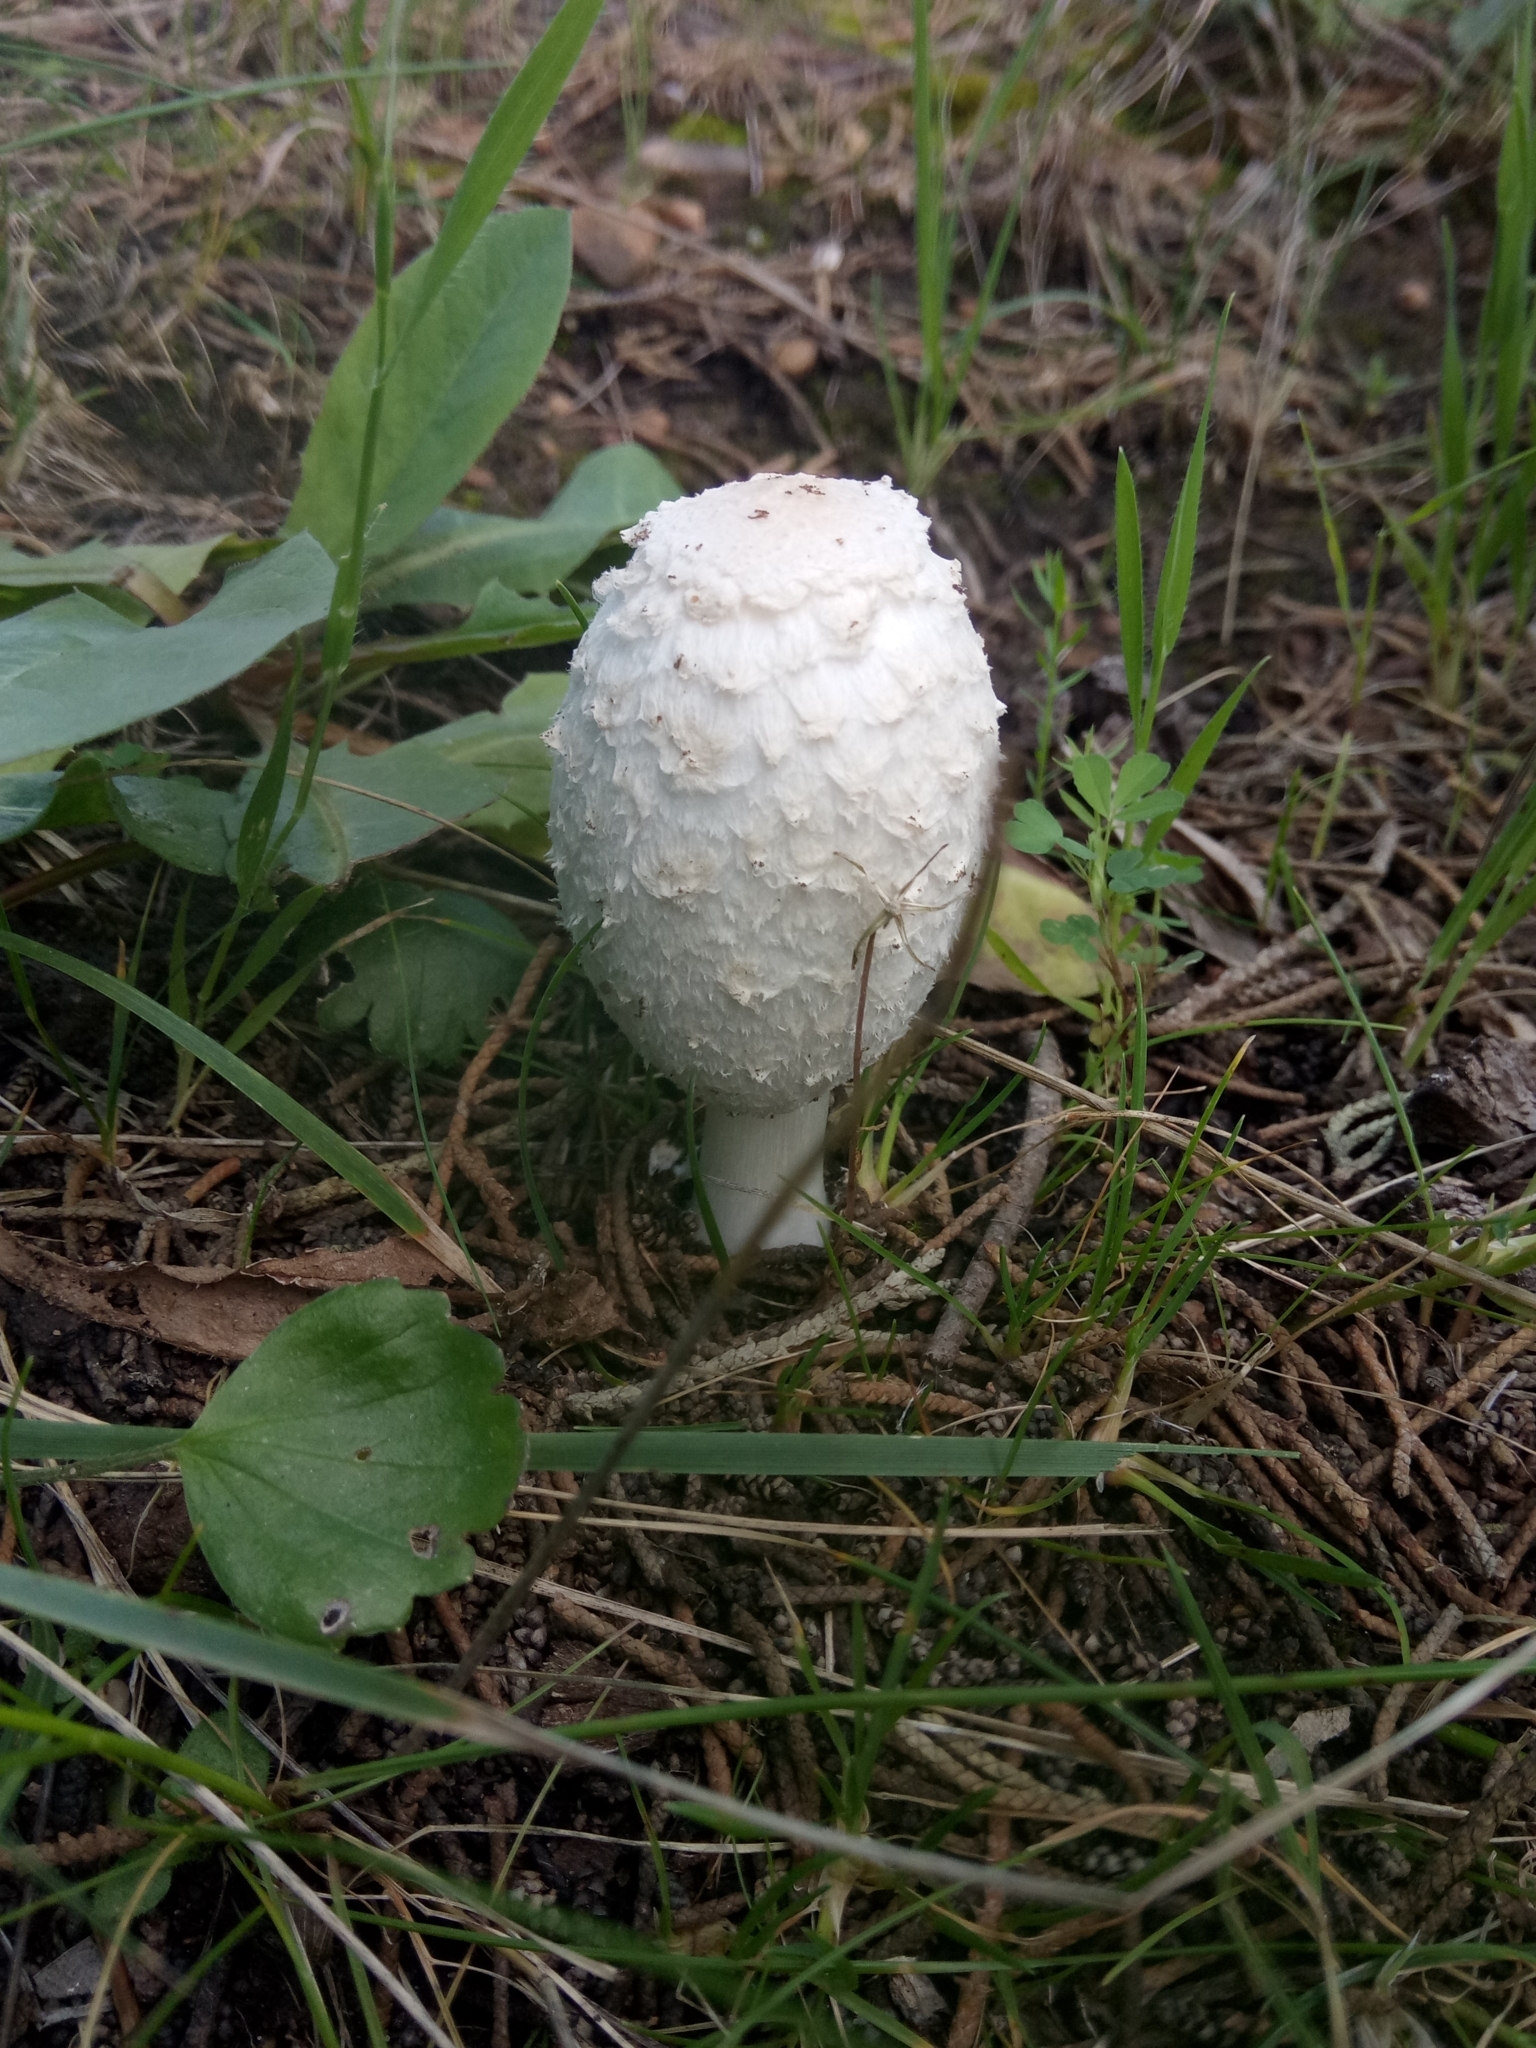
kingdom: Fungi
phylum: Basidiomycota
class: Agaricomycetes
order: Agaricales
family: Agaricaceae
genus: Coprinus
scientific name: Coprinus comatus
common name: Lawyer's wig
